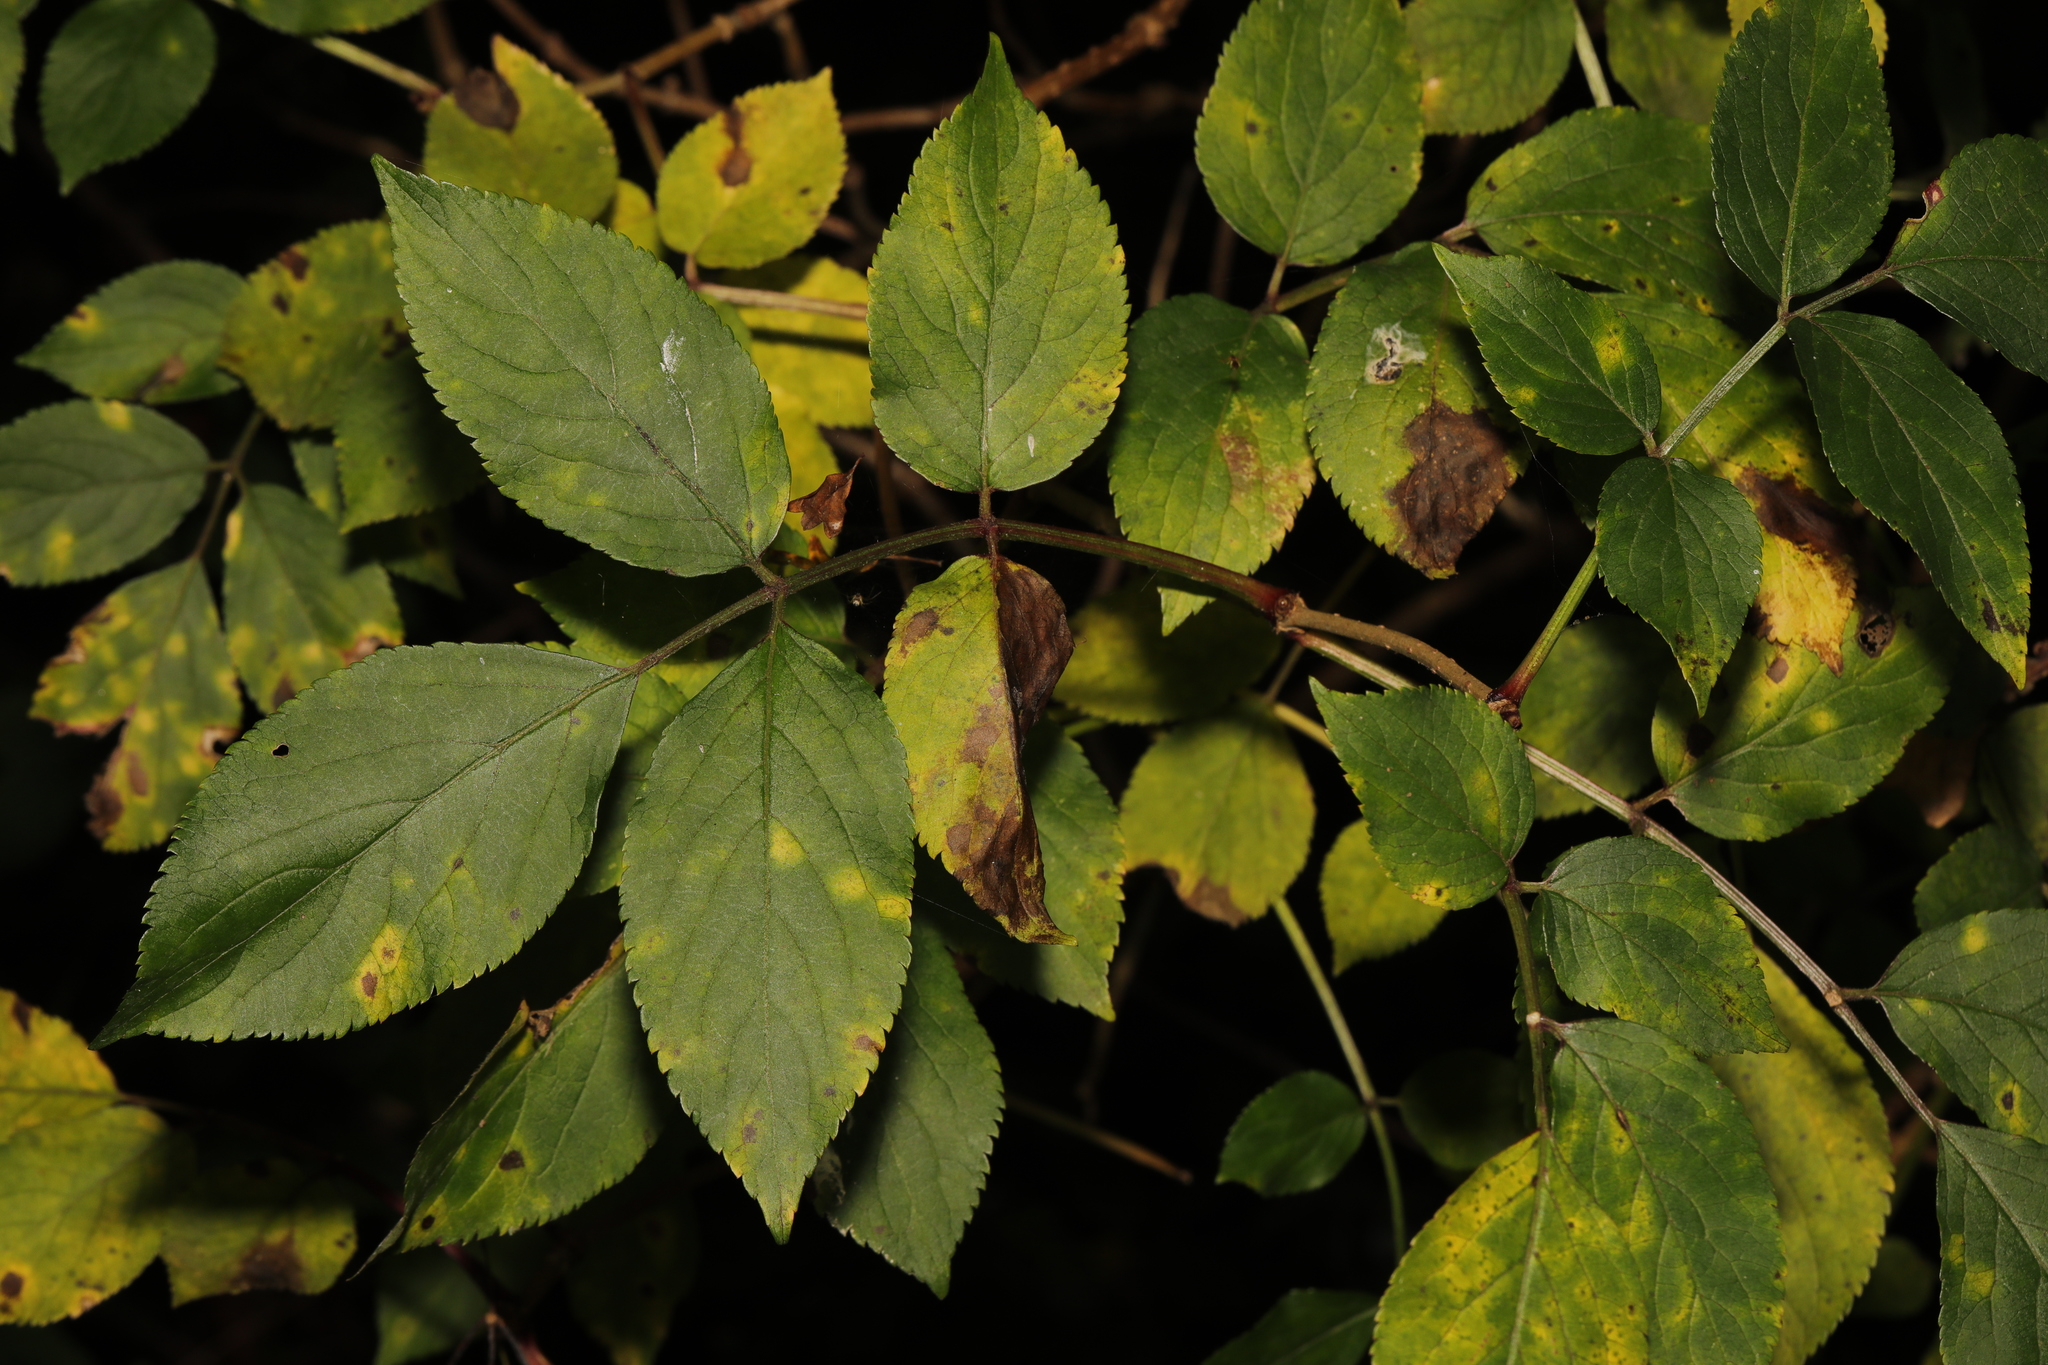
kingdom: Plantae
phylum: Tracheophyta
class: Magnoliopsida
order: Dipsacales
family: Viburnaceae
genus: Sambucus
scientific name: Sambucus nigra
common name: Elder
